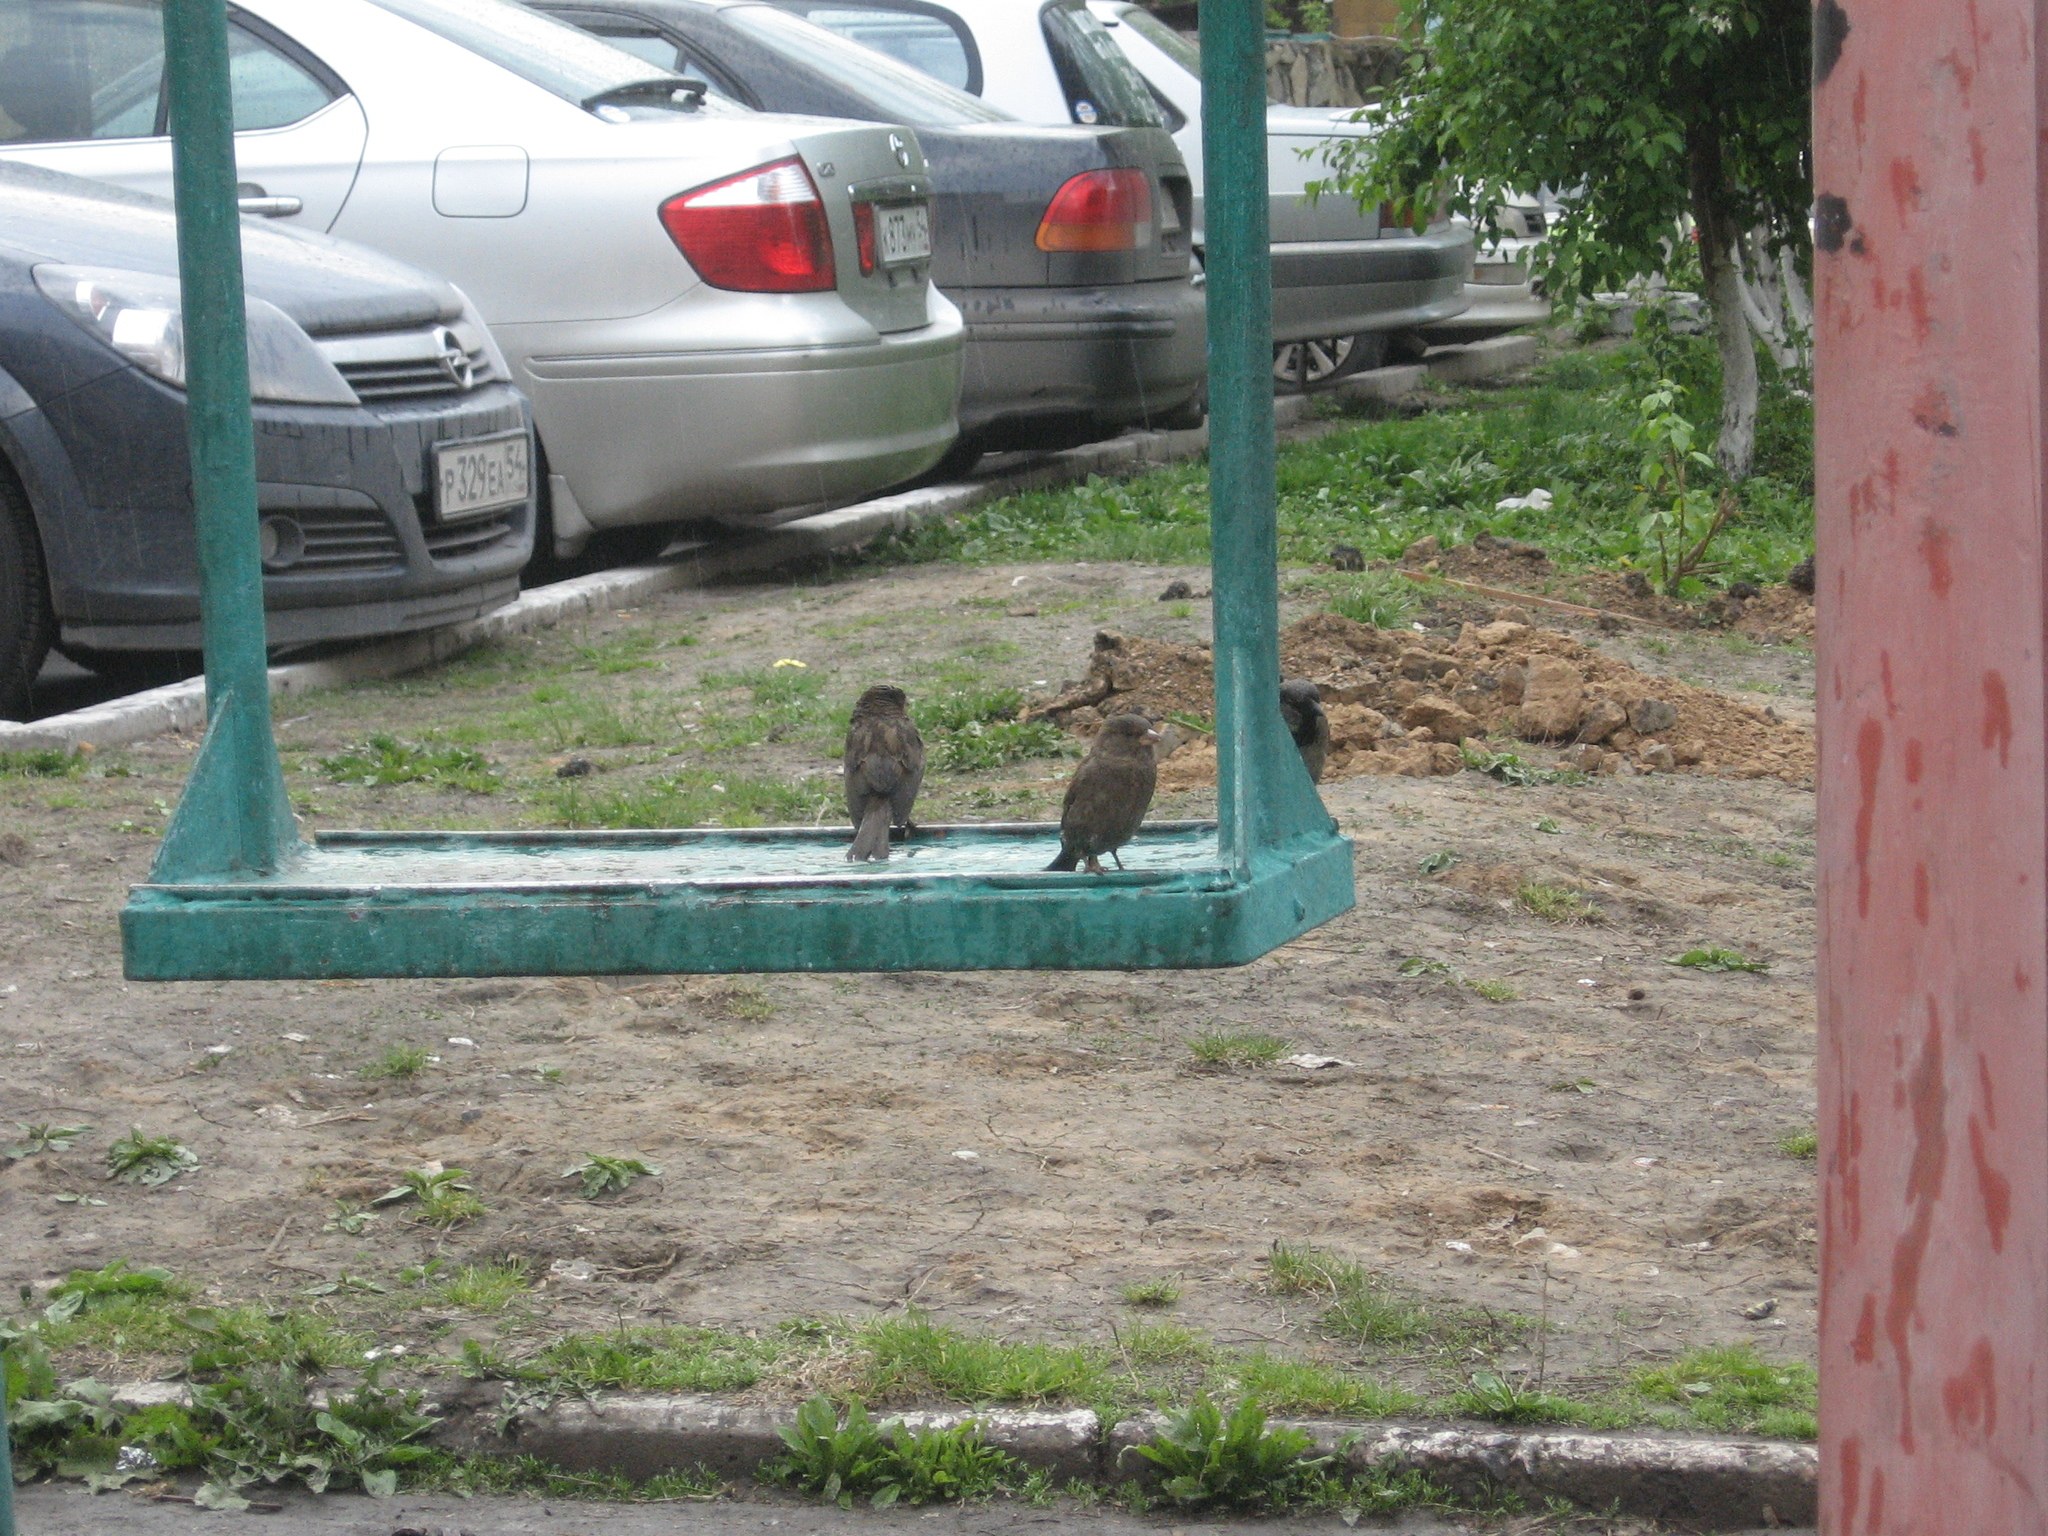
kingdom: Animalia
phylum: Chordata
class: Aves
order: Passeriformes
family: Passeridae
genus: Passer
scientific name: Passer domesticus
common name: House sparrow
